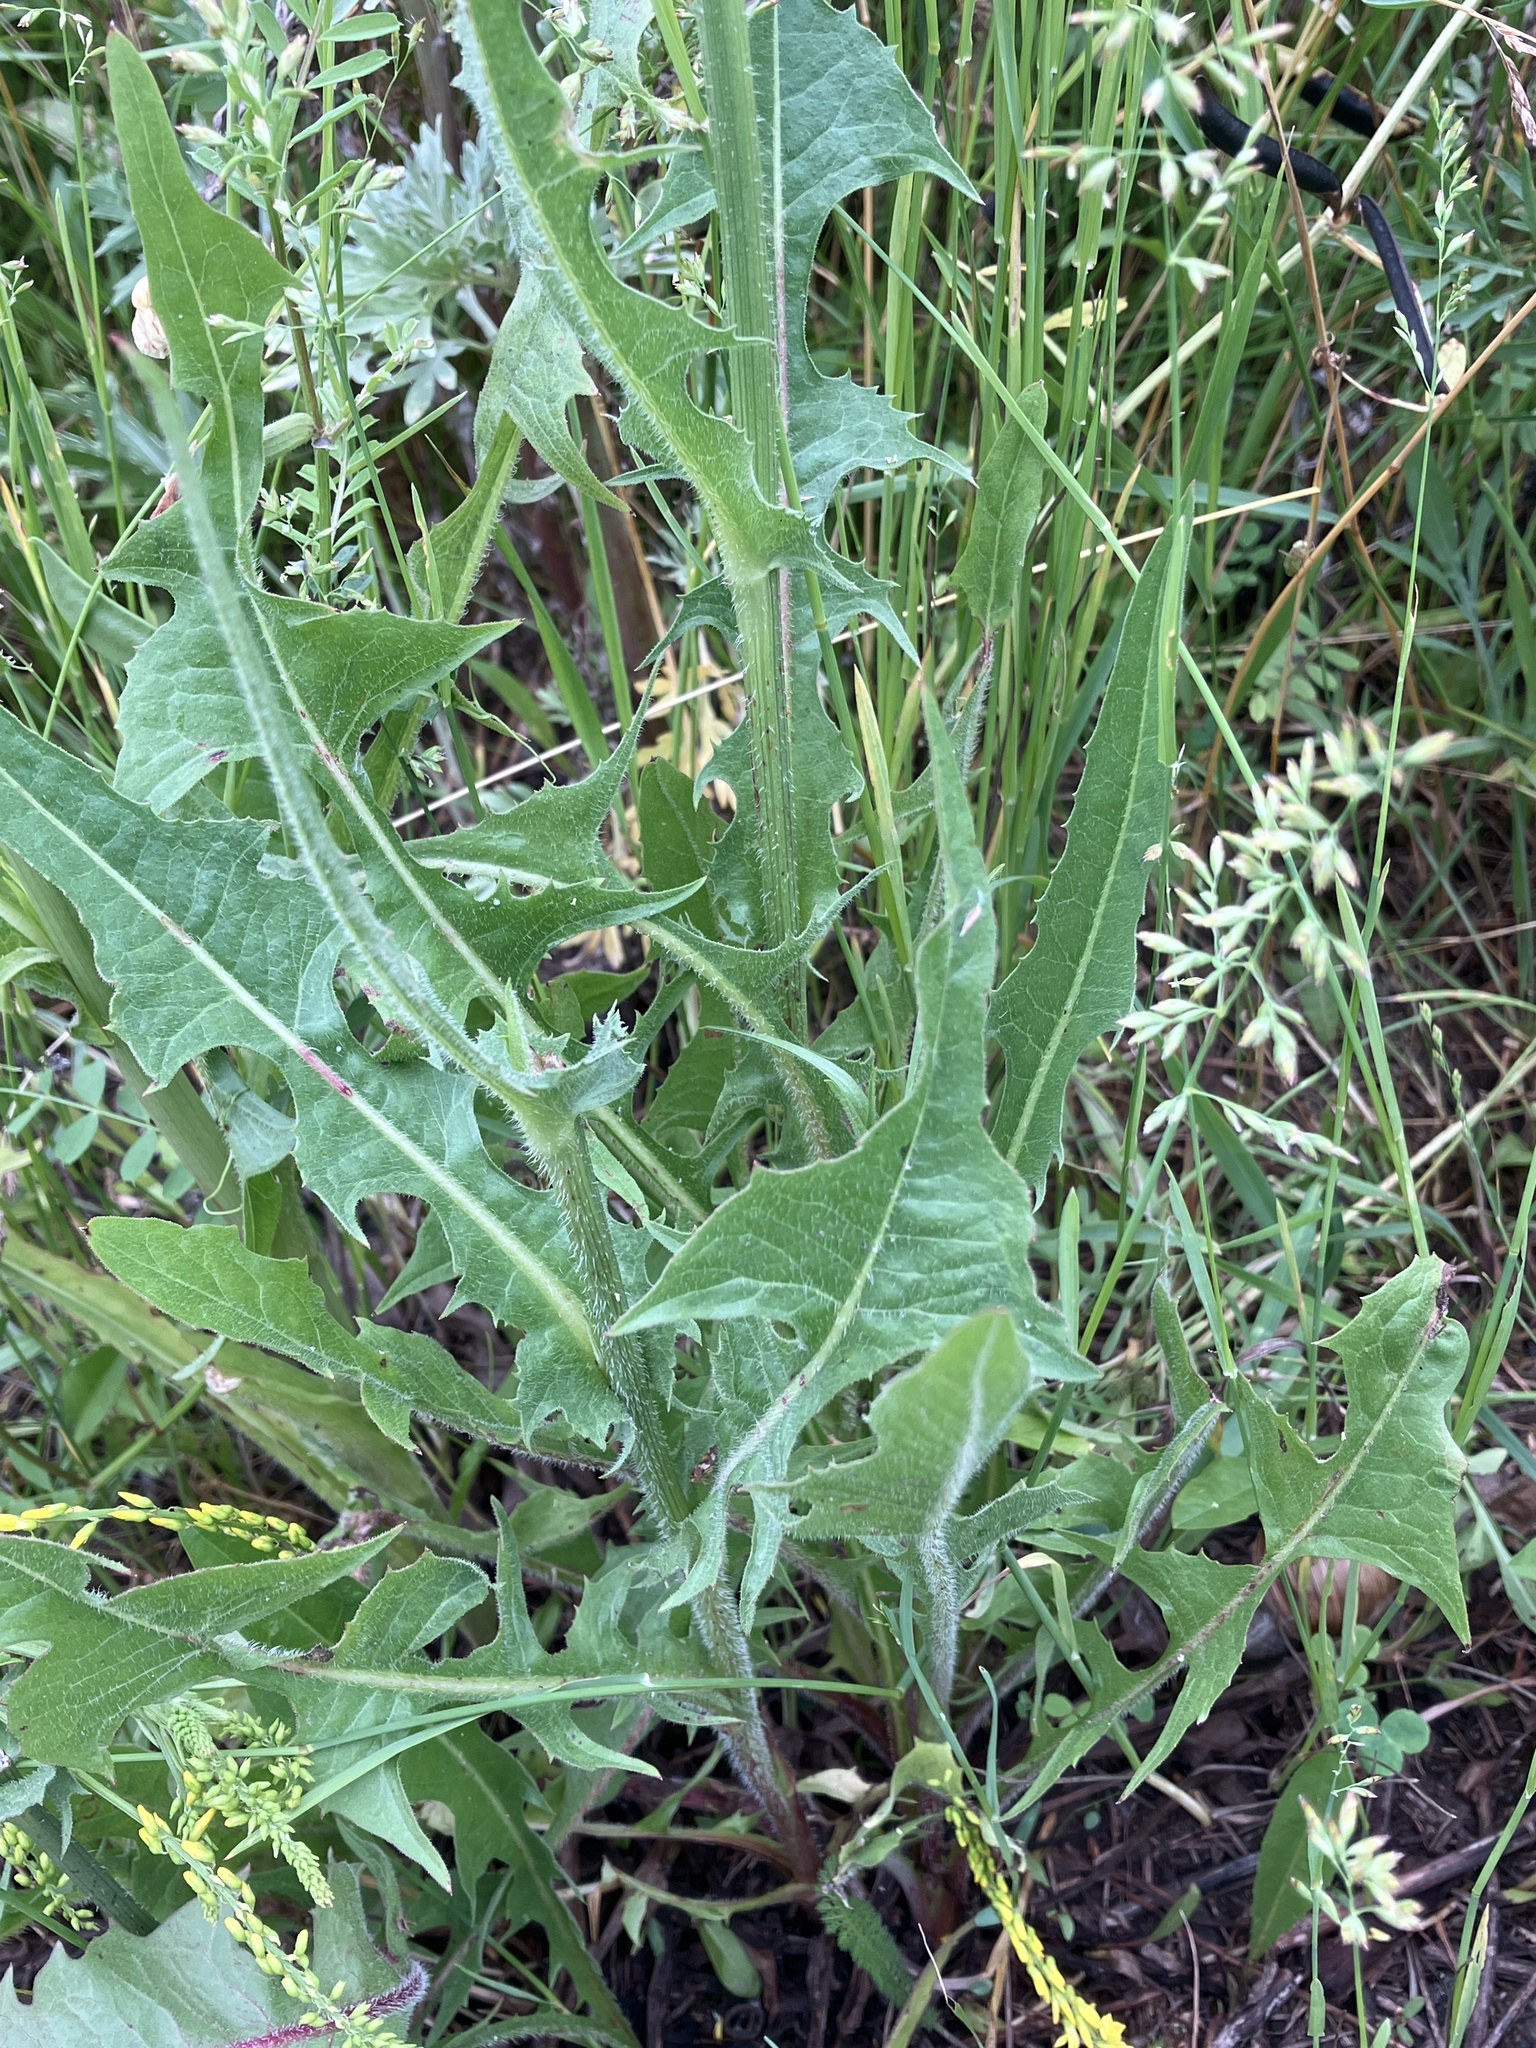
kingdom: Plantae
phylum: Tracheophyta
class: Magnoliopsida
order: Asterales
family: Asteraceae
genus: Cichorium
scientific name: Cichorium intybus
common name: Chicory
